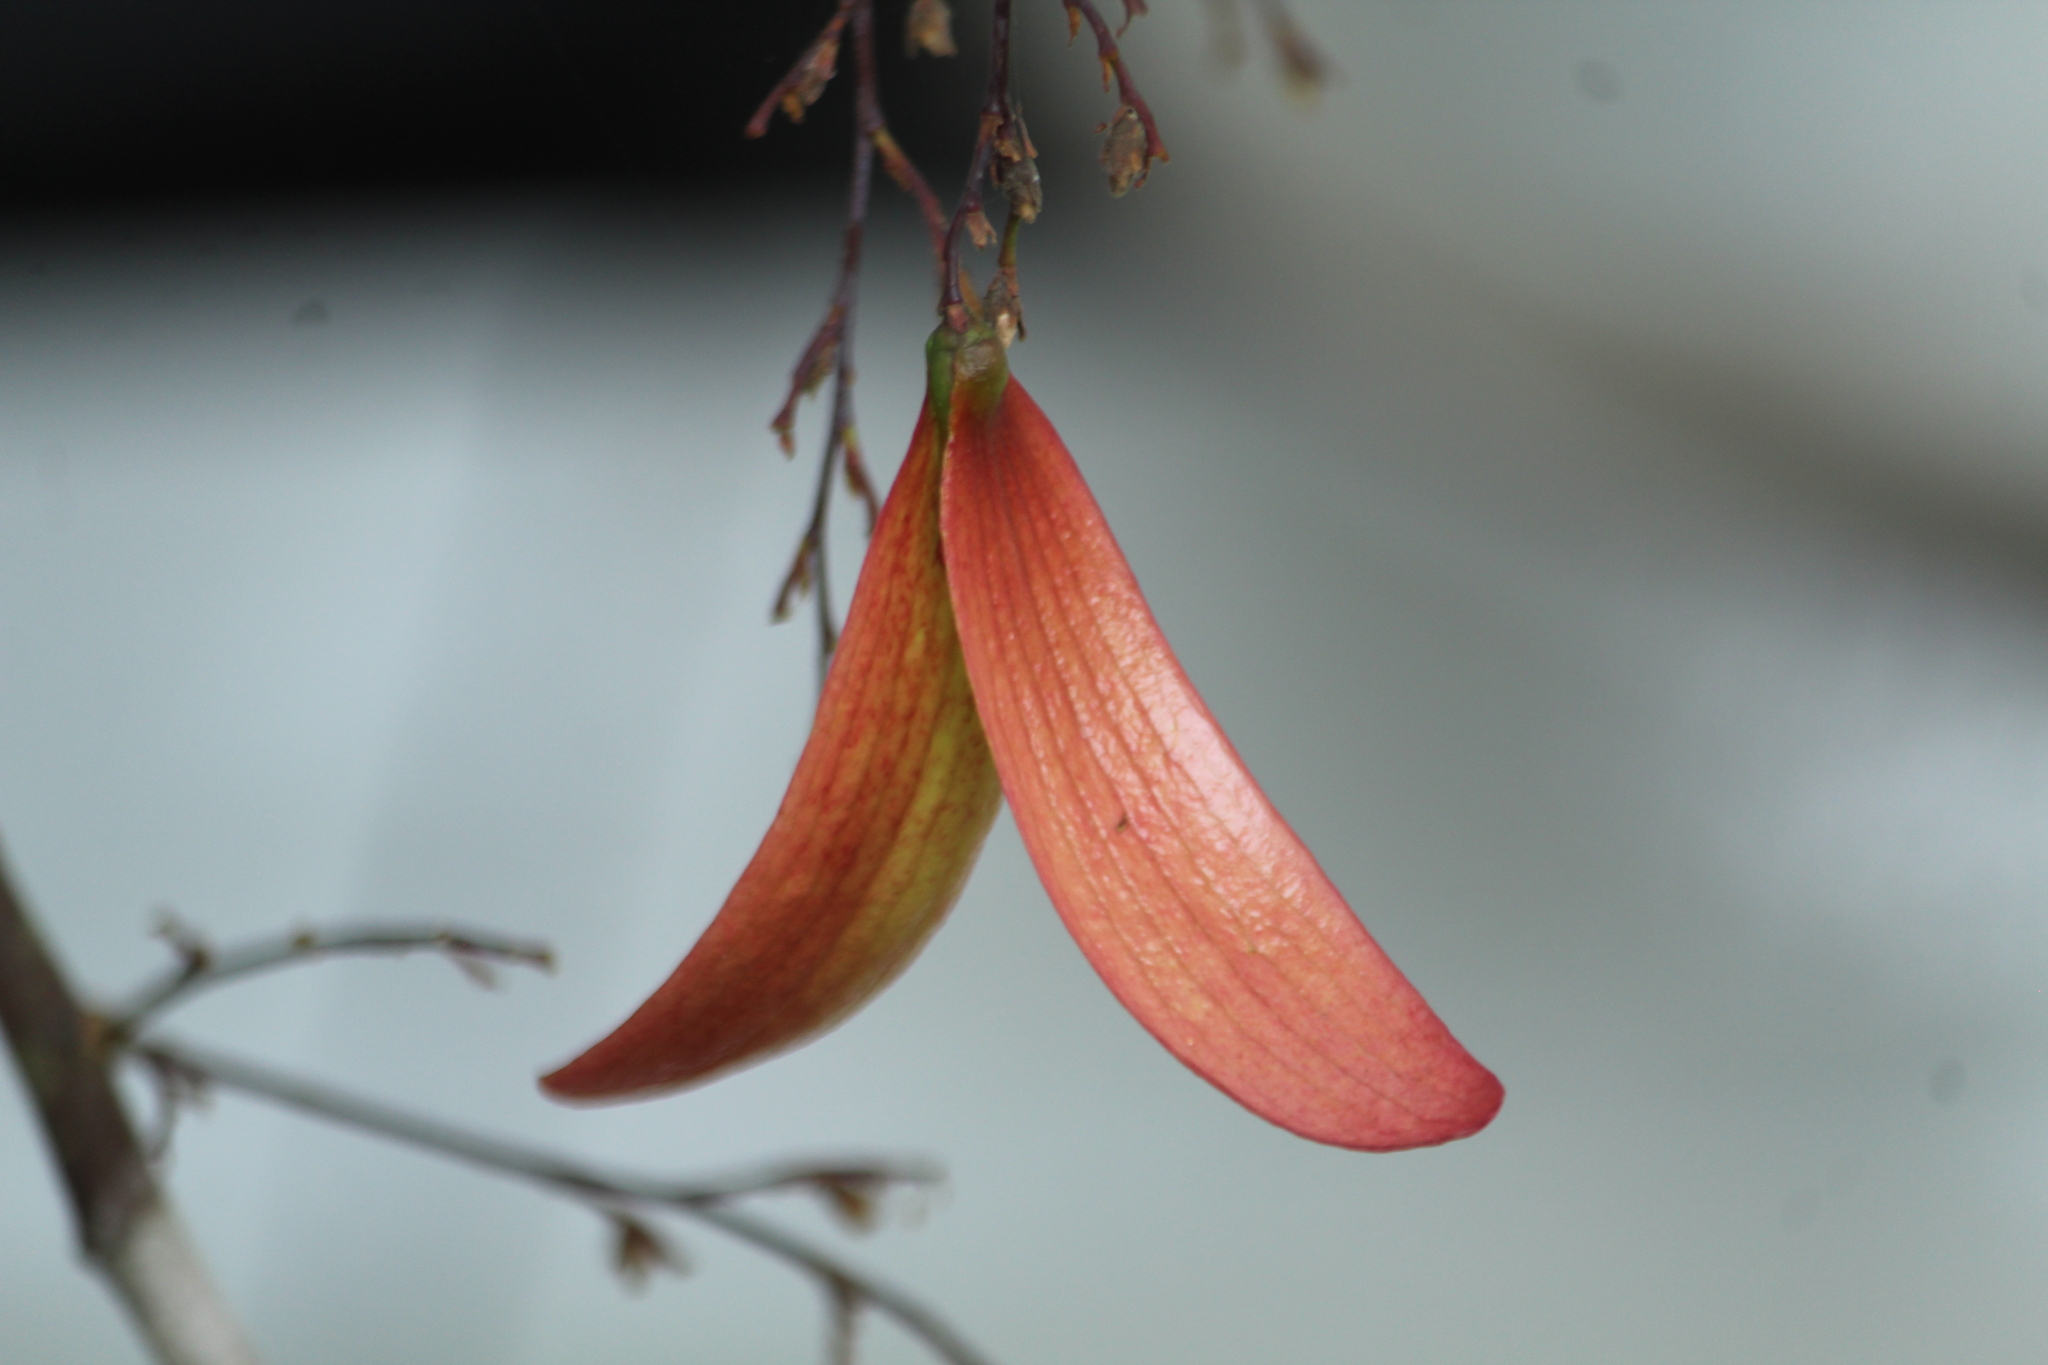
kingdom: Plantae
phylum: Tracheophyta
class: Magnoliopsida
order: Malvales
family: Dipterocarpaceae
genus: Hopea
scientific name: Hopea ponga
